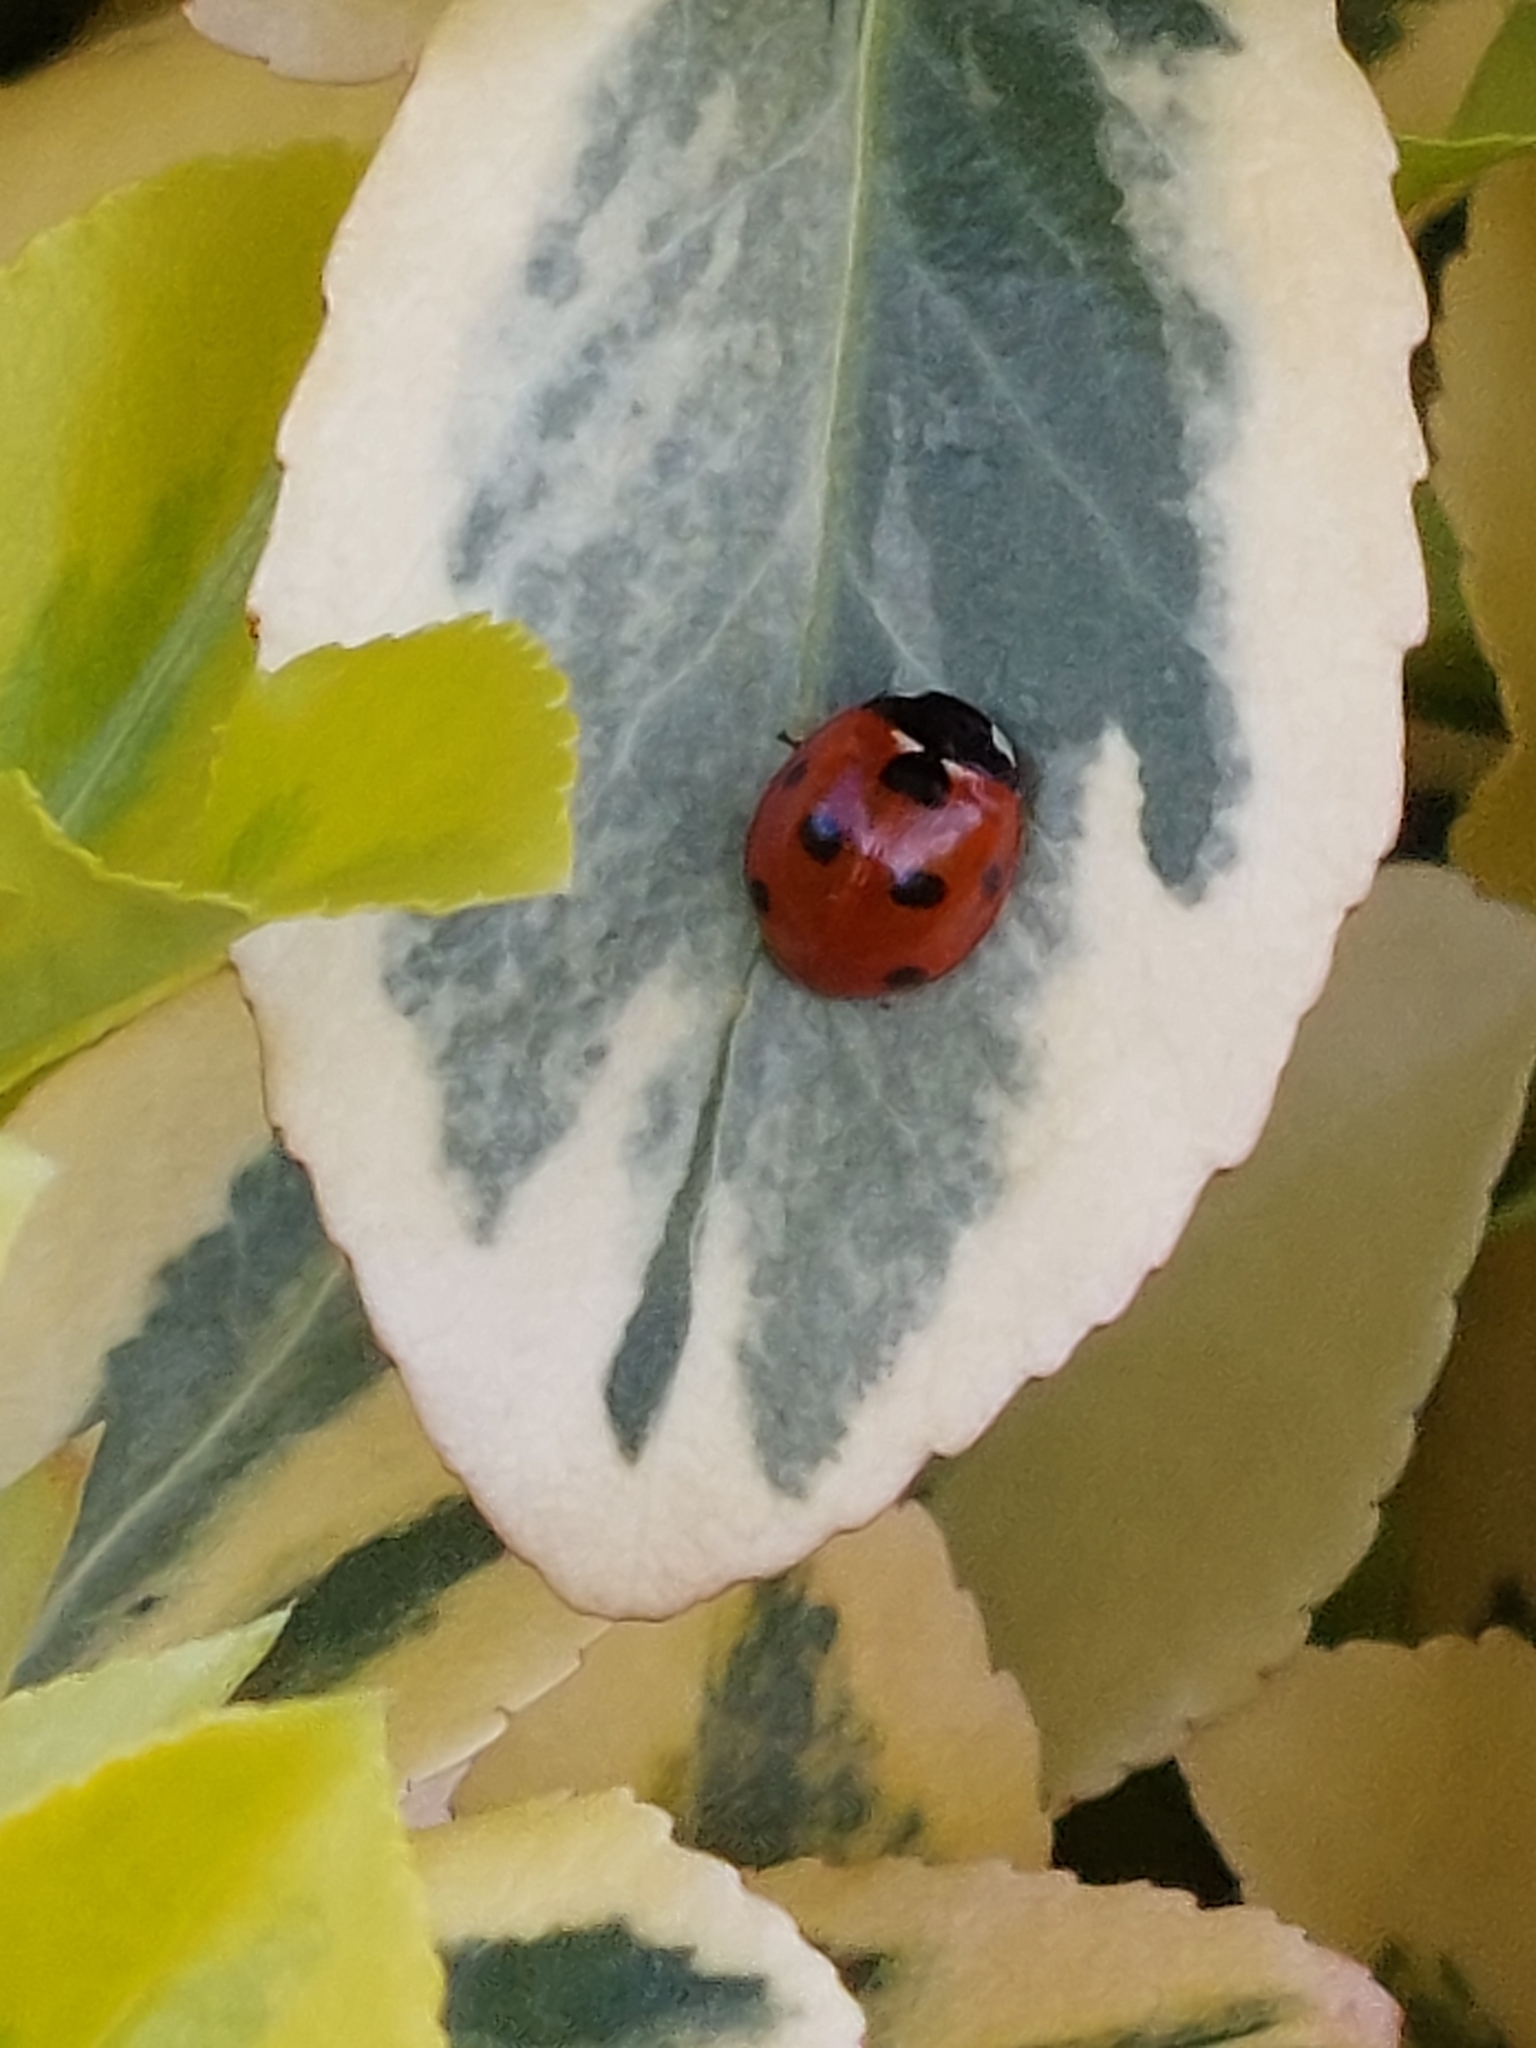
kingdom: Animalia
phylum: Arthropoda
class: Insecta
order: Coleoptera
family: Coccinellidae
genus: Coccinella
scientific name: Coccinella septempunctata
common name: Sevenspotted lady beetle
